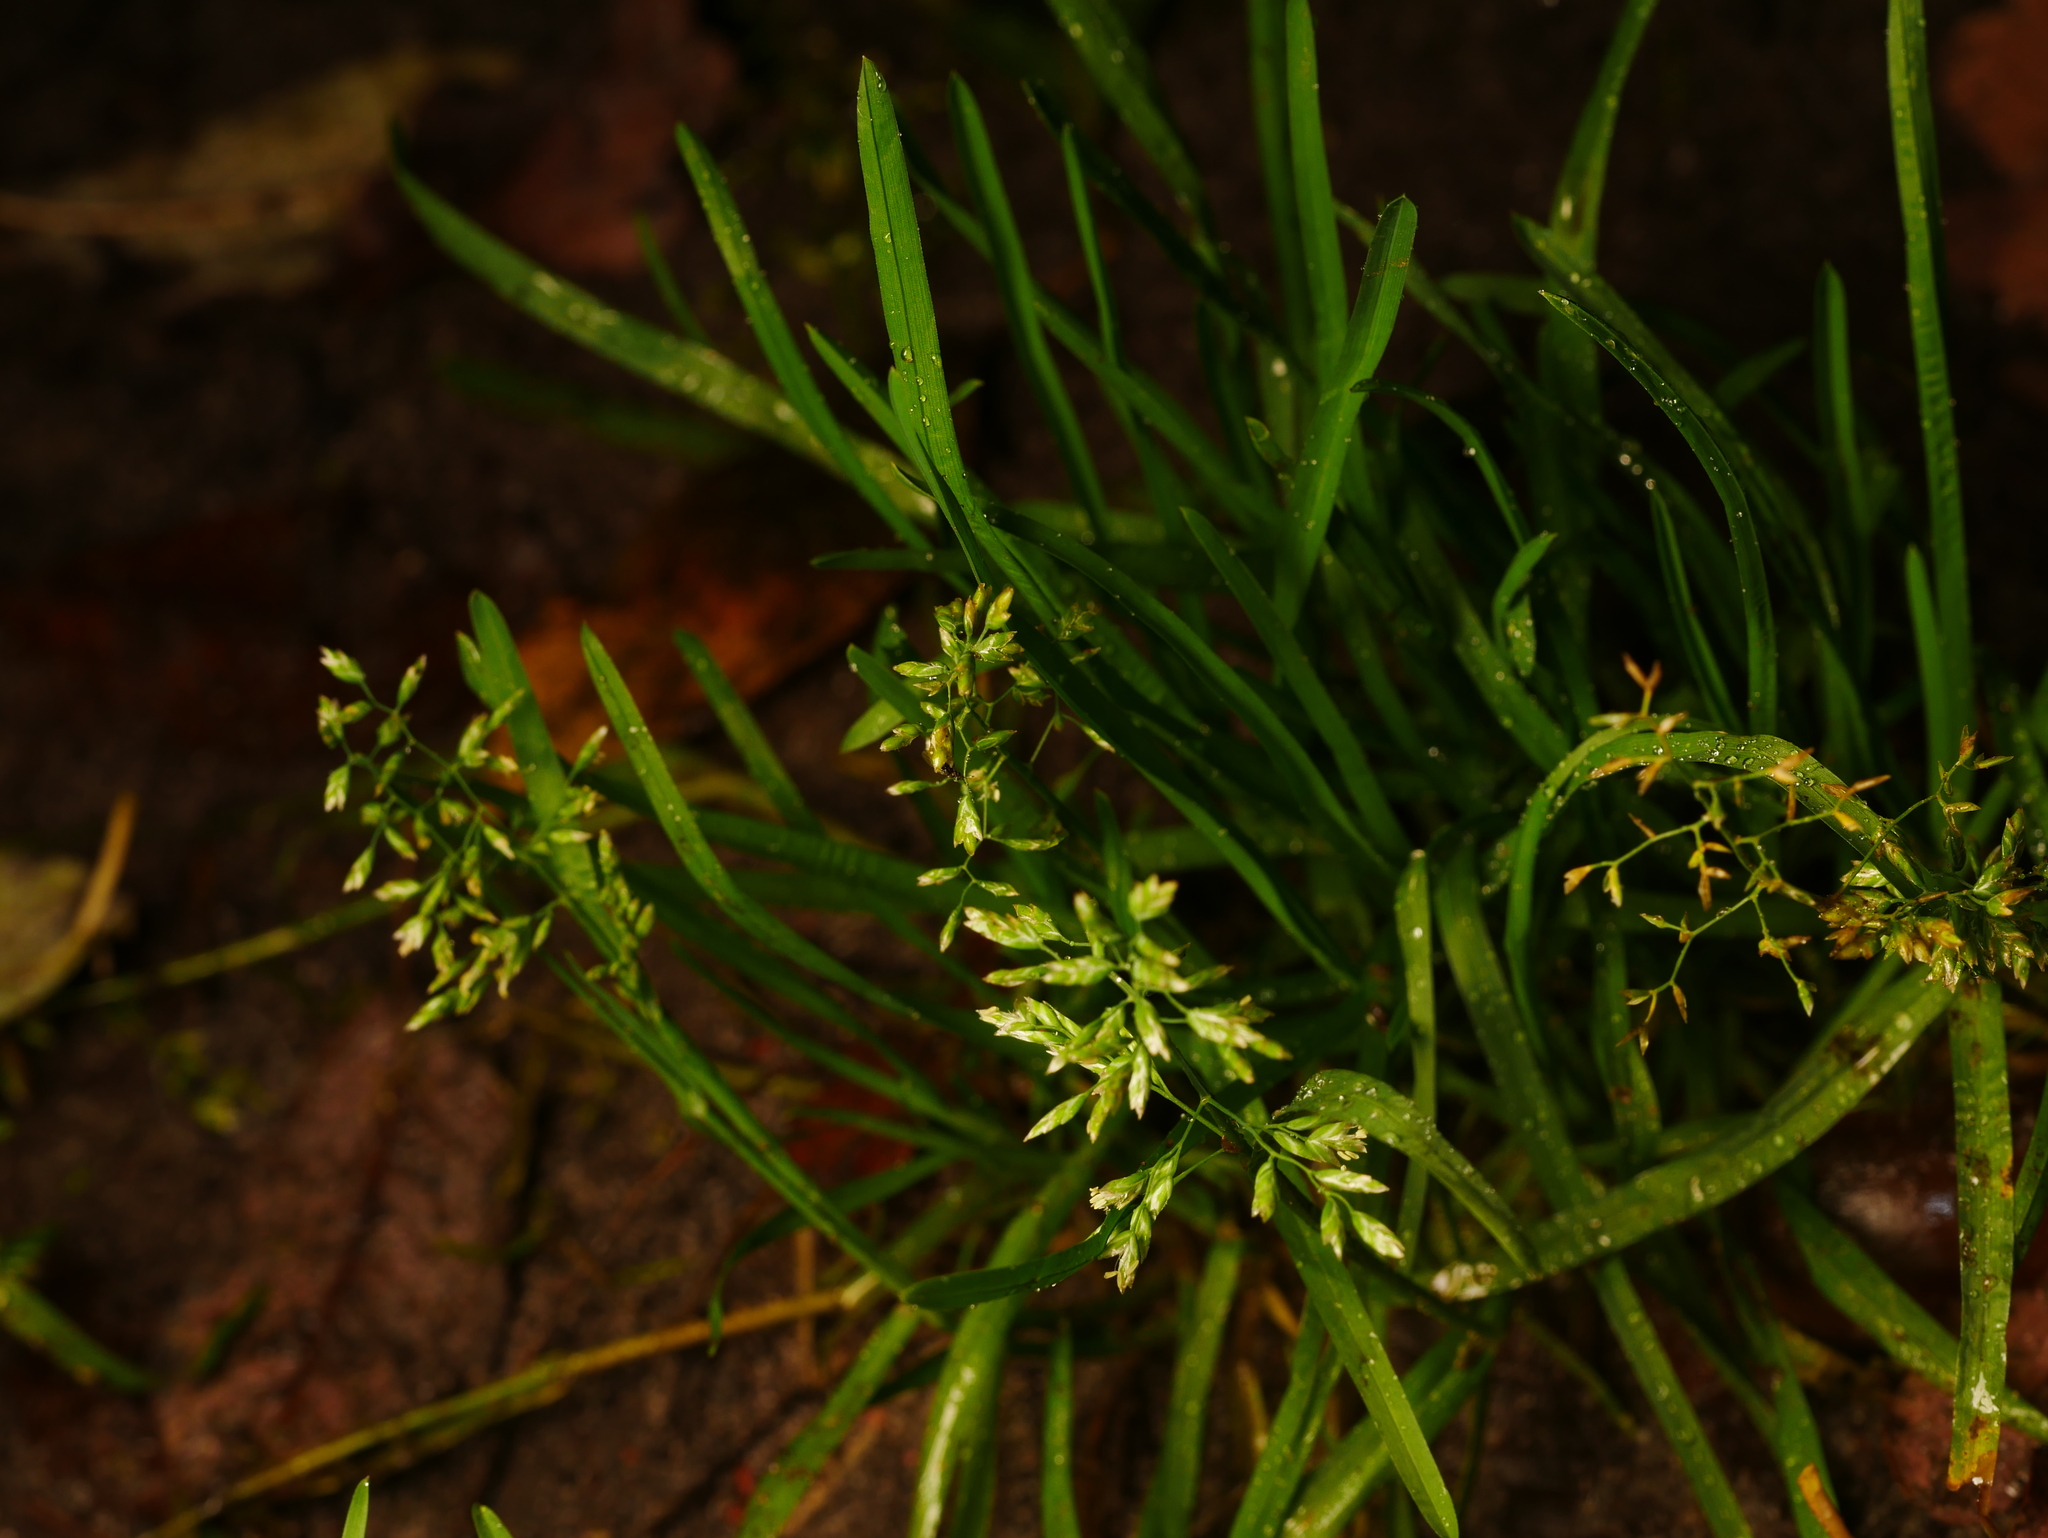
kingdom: Plantae
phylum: Tracheophyta
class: Liliopsida
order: Poales
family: Poaceae
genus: Poa
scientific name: Poa annua
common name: Annual bluegrass
